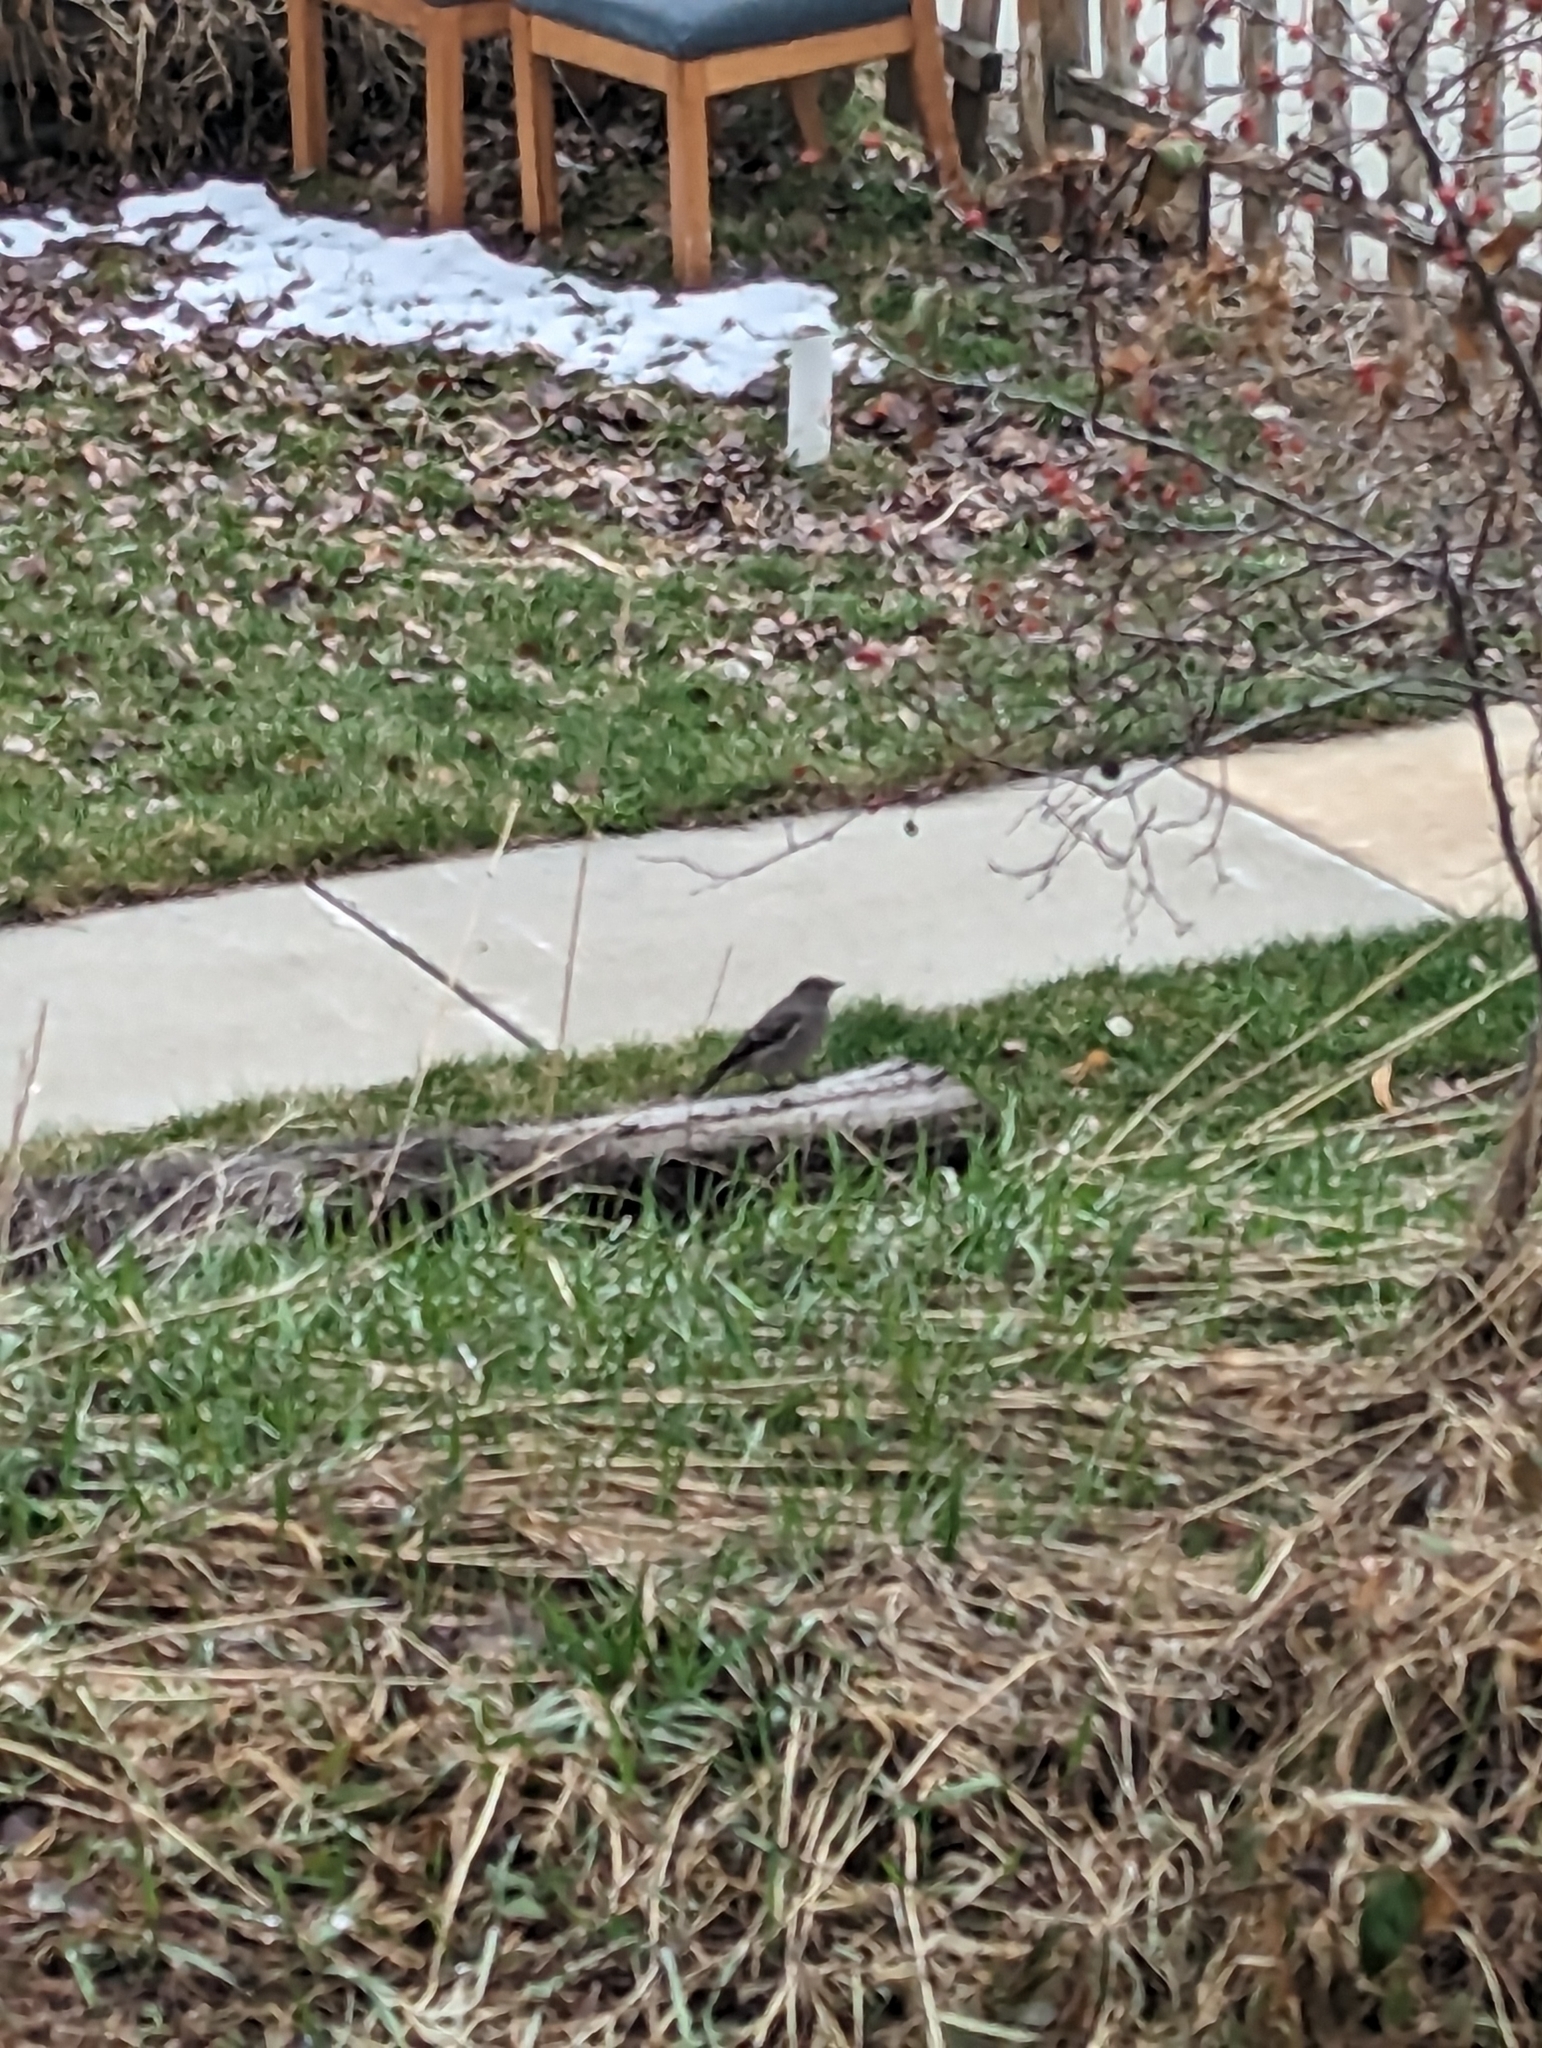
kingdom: Animalia
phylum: Chordata
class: Aves
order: Passeriformes
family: Turdidae
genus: Myadestes
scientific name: Myadestes townsendi
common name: Townsend's solitaire
